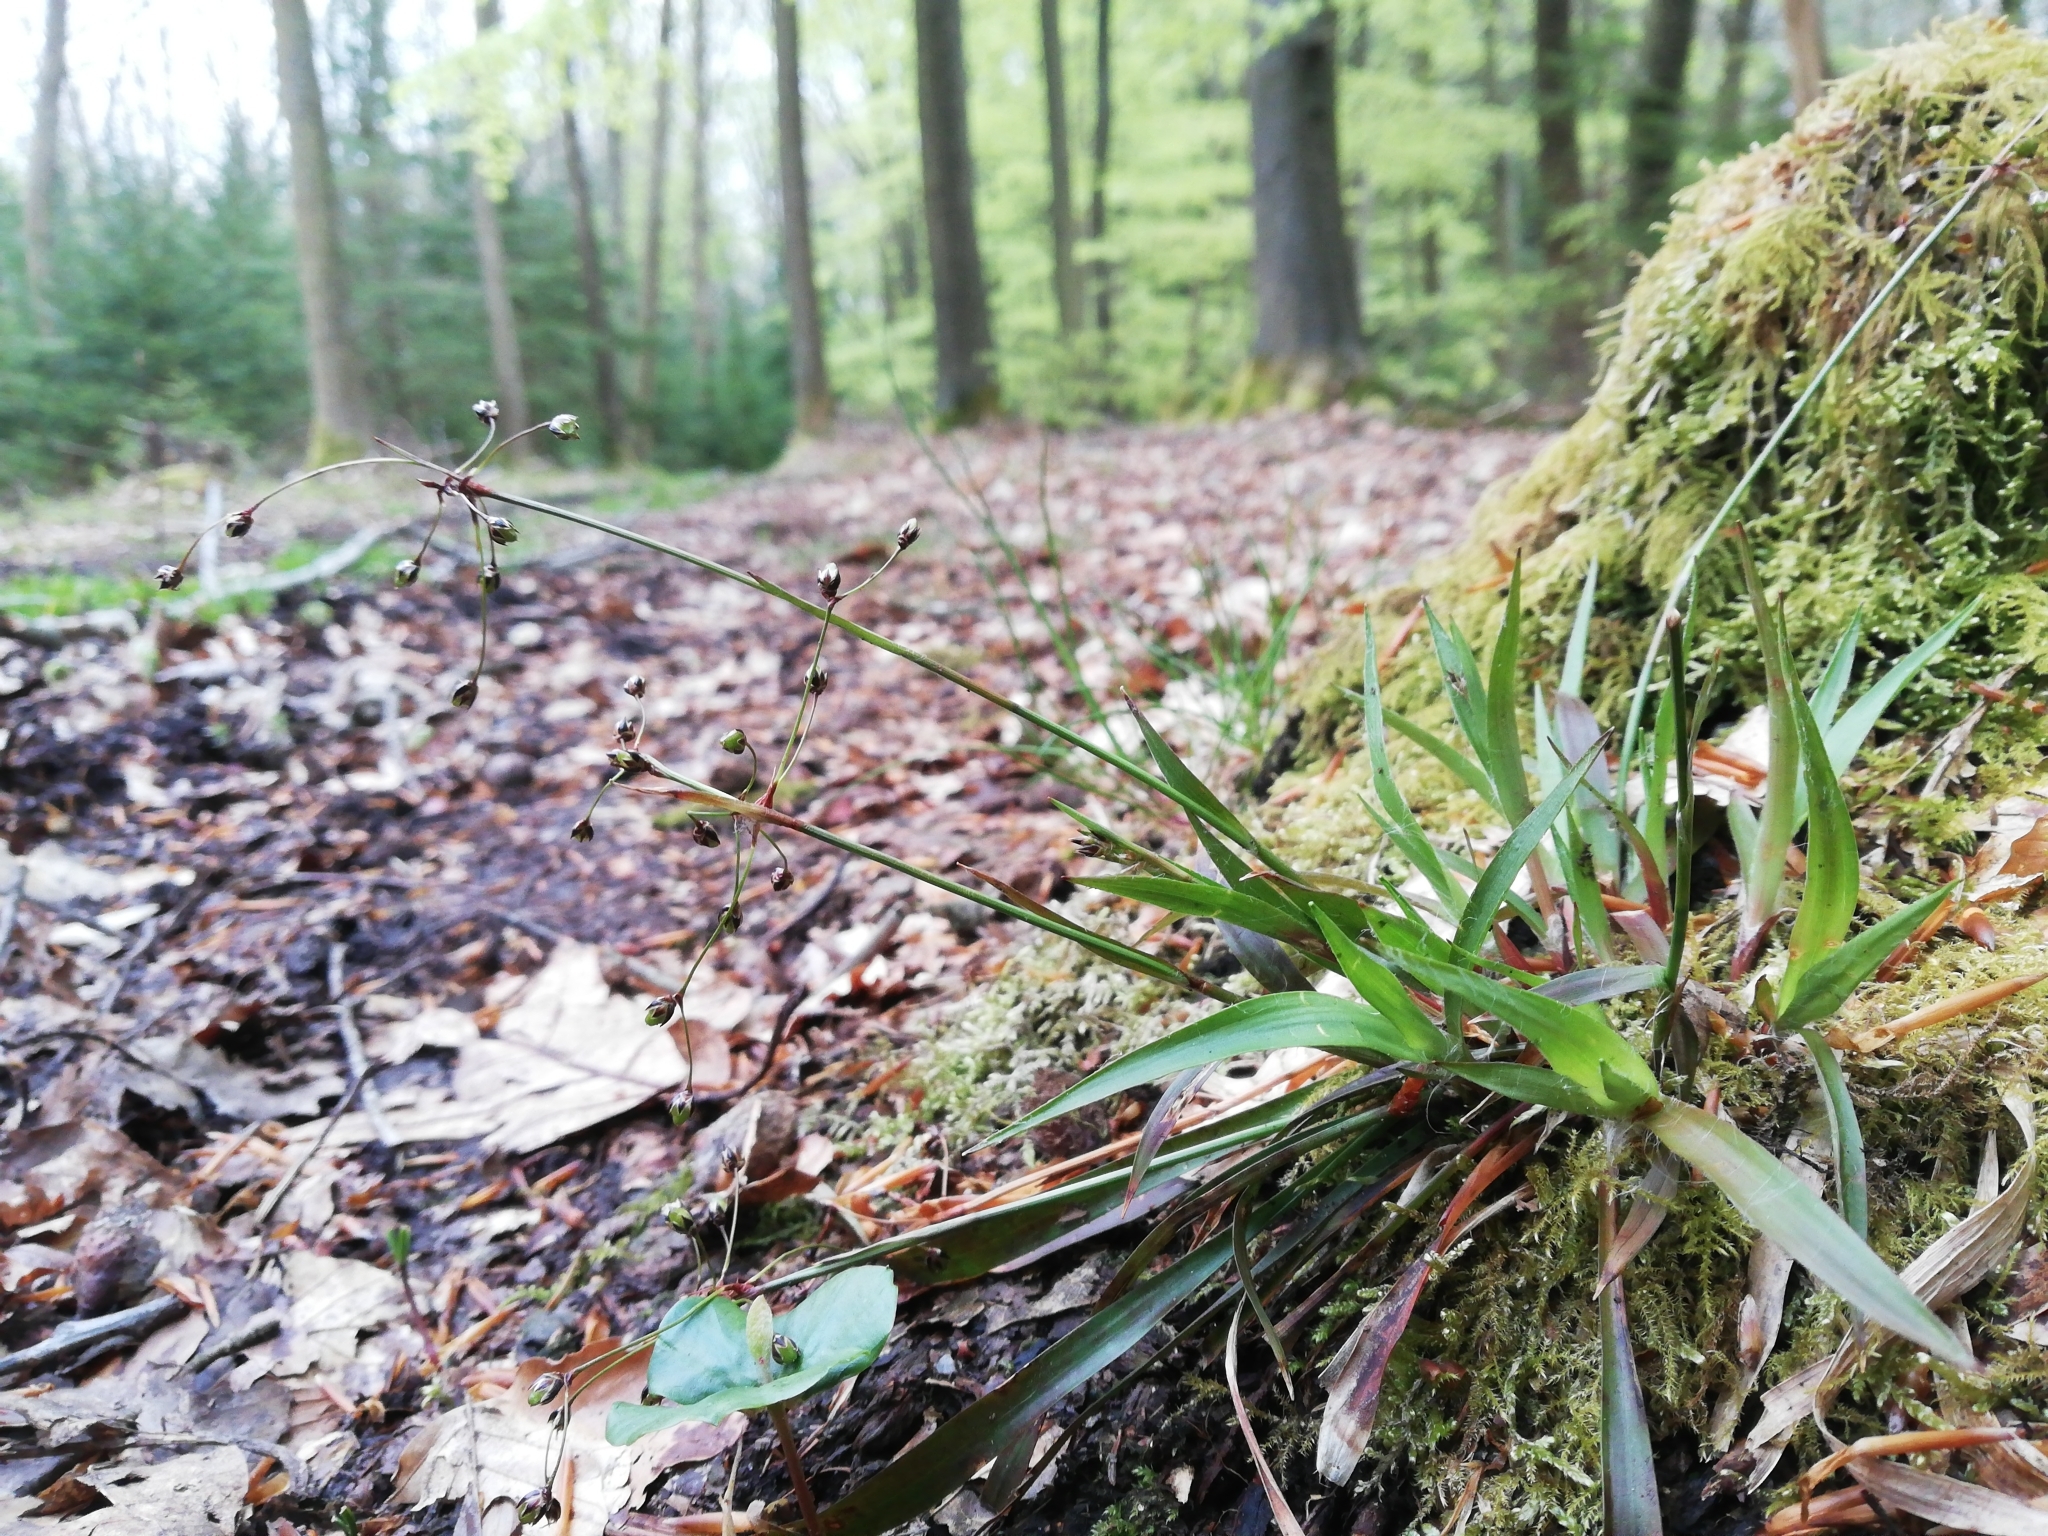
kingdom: Plantae
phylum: Tracheophyta
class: Liliopsida
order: Poales
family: Juncaceae
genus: Luzula
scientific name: Luzula pilosa
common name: Hairy wood-rush
